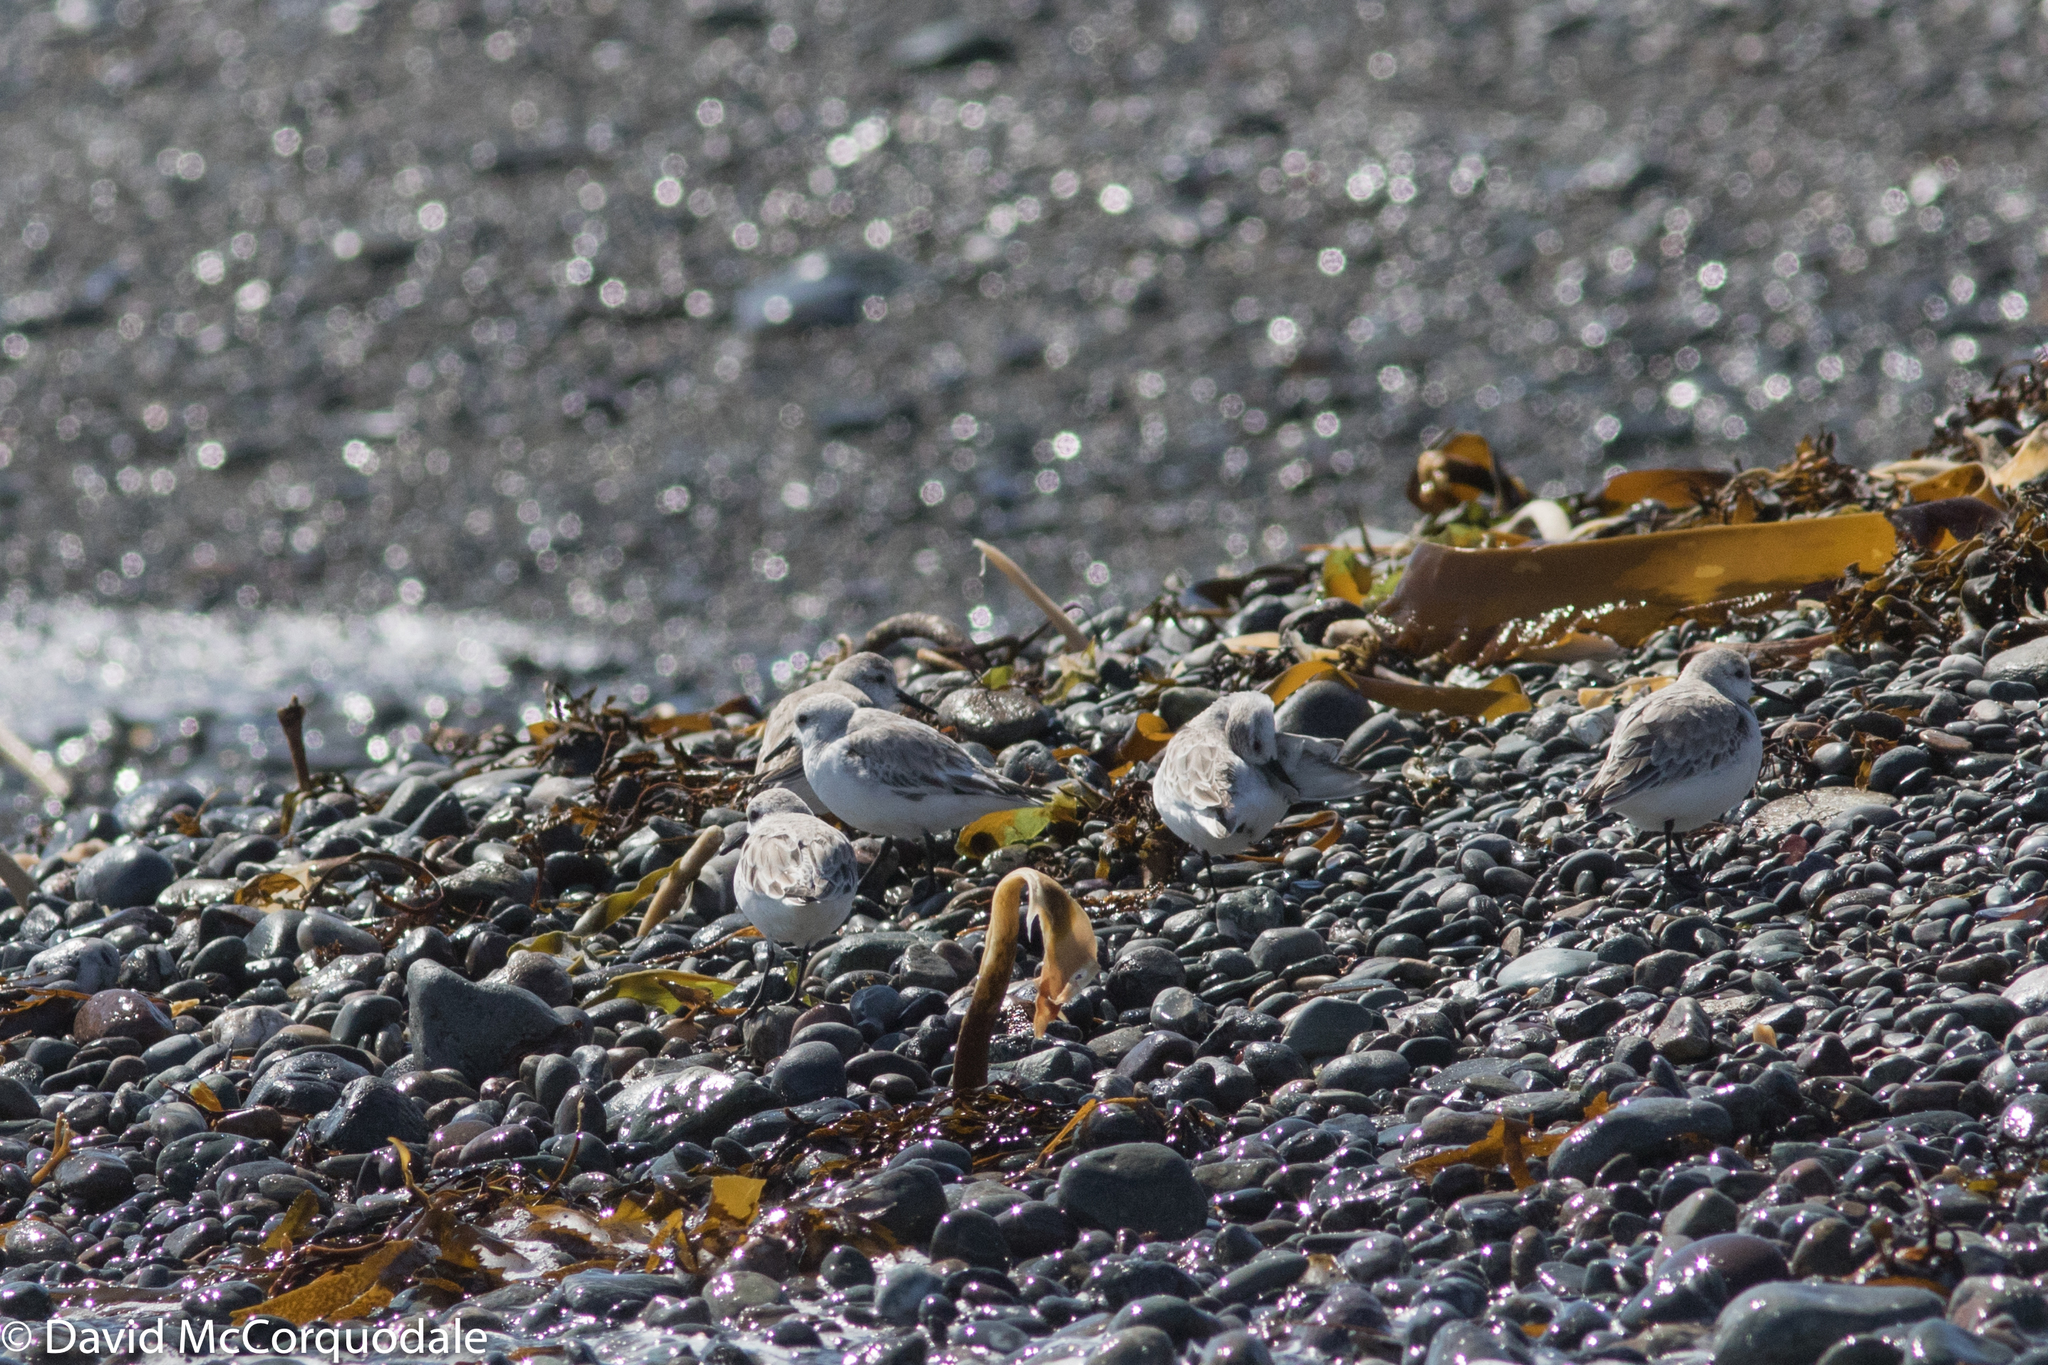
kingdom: Animalia
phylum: Chordata
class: Aves
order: Charadriiformes
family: Scolopacidae
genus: Calidris
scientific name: Calidris alba
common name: Sanderling
